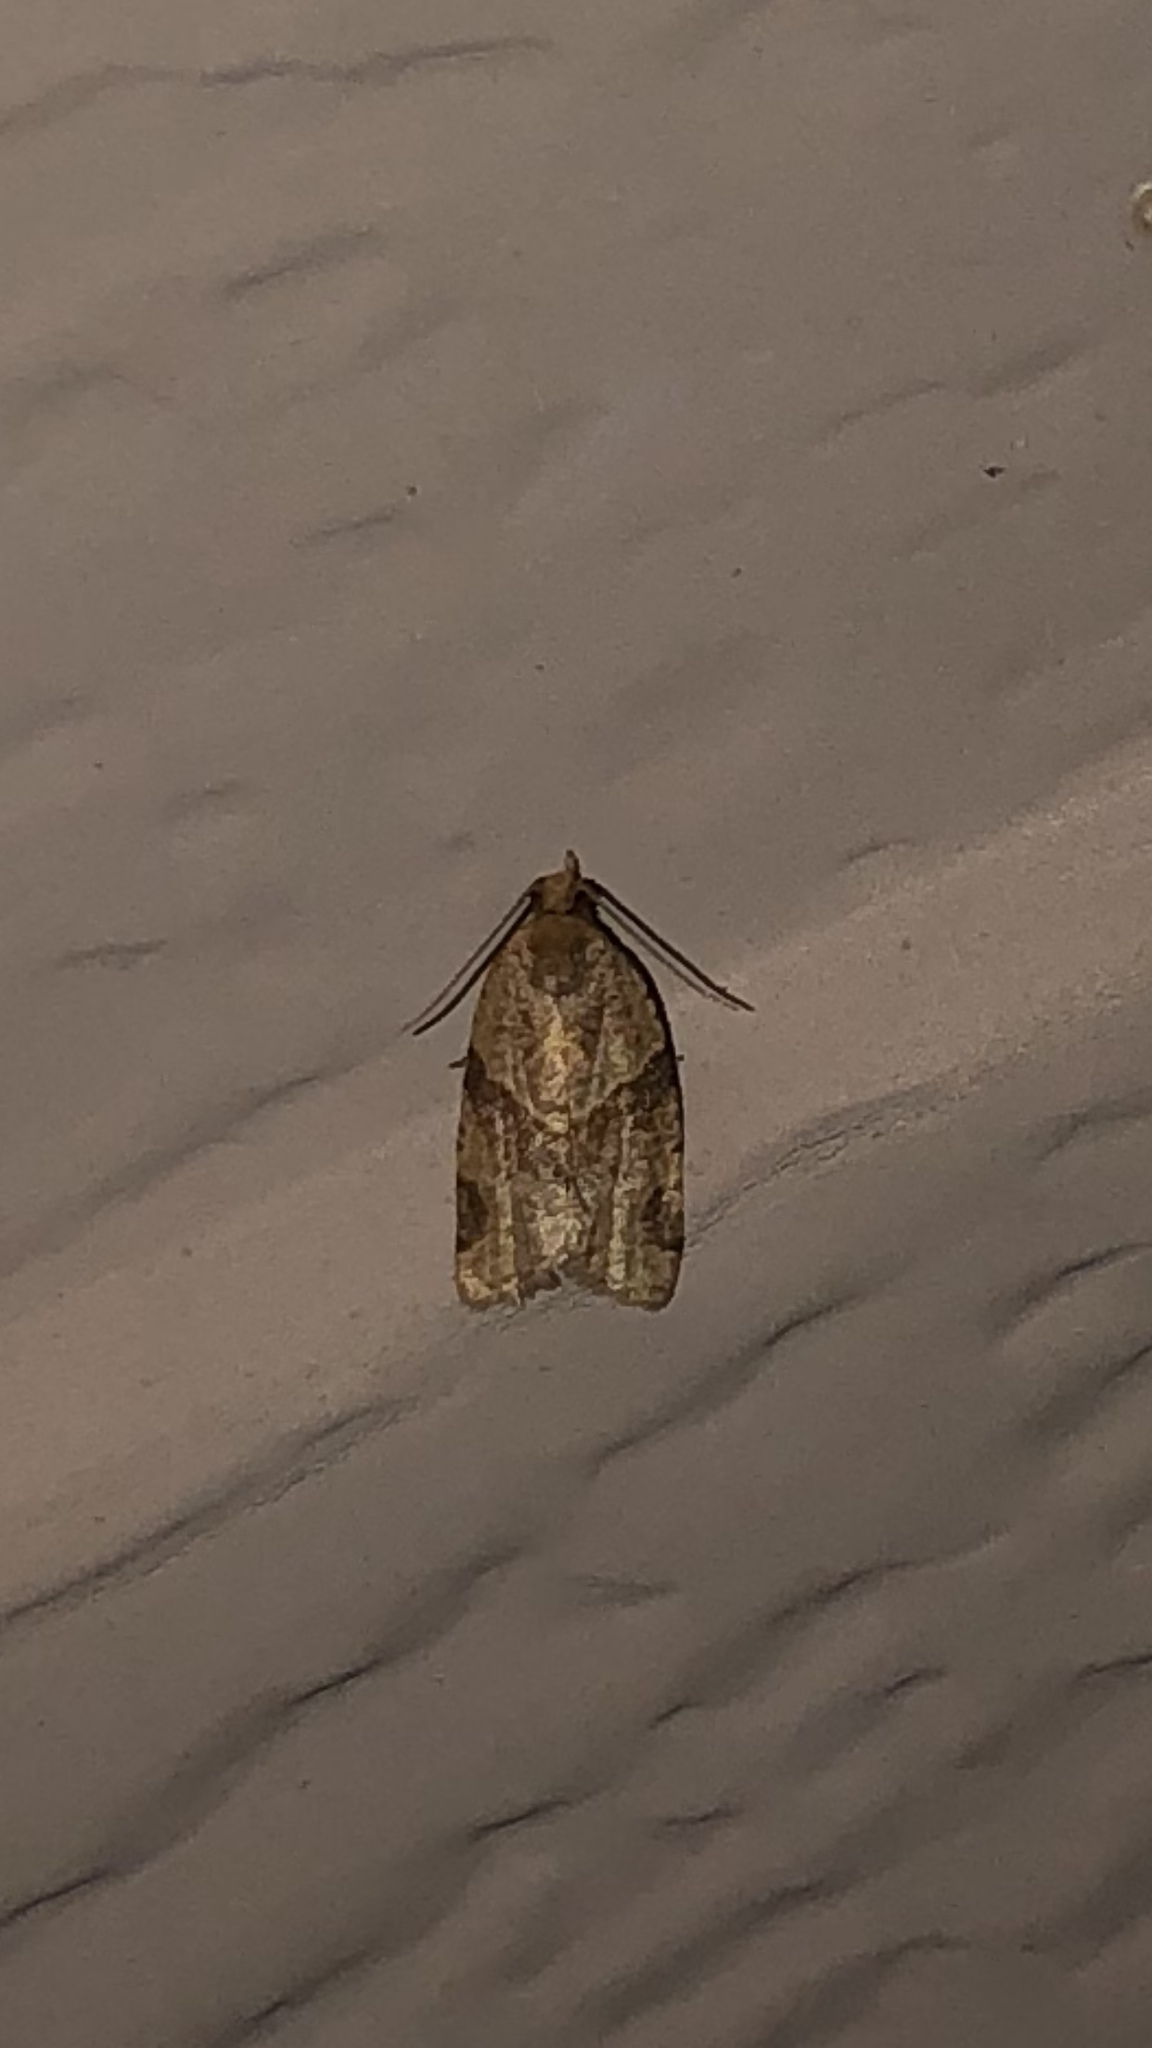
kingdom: Animalia
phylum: Arthropoda
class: Insecta
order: Lepidoptera
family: Tortricidae
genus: Clepsis
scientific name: Clepsis peritana
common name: Garden tortrix
